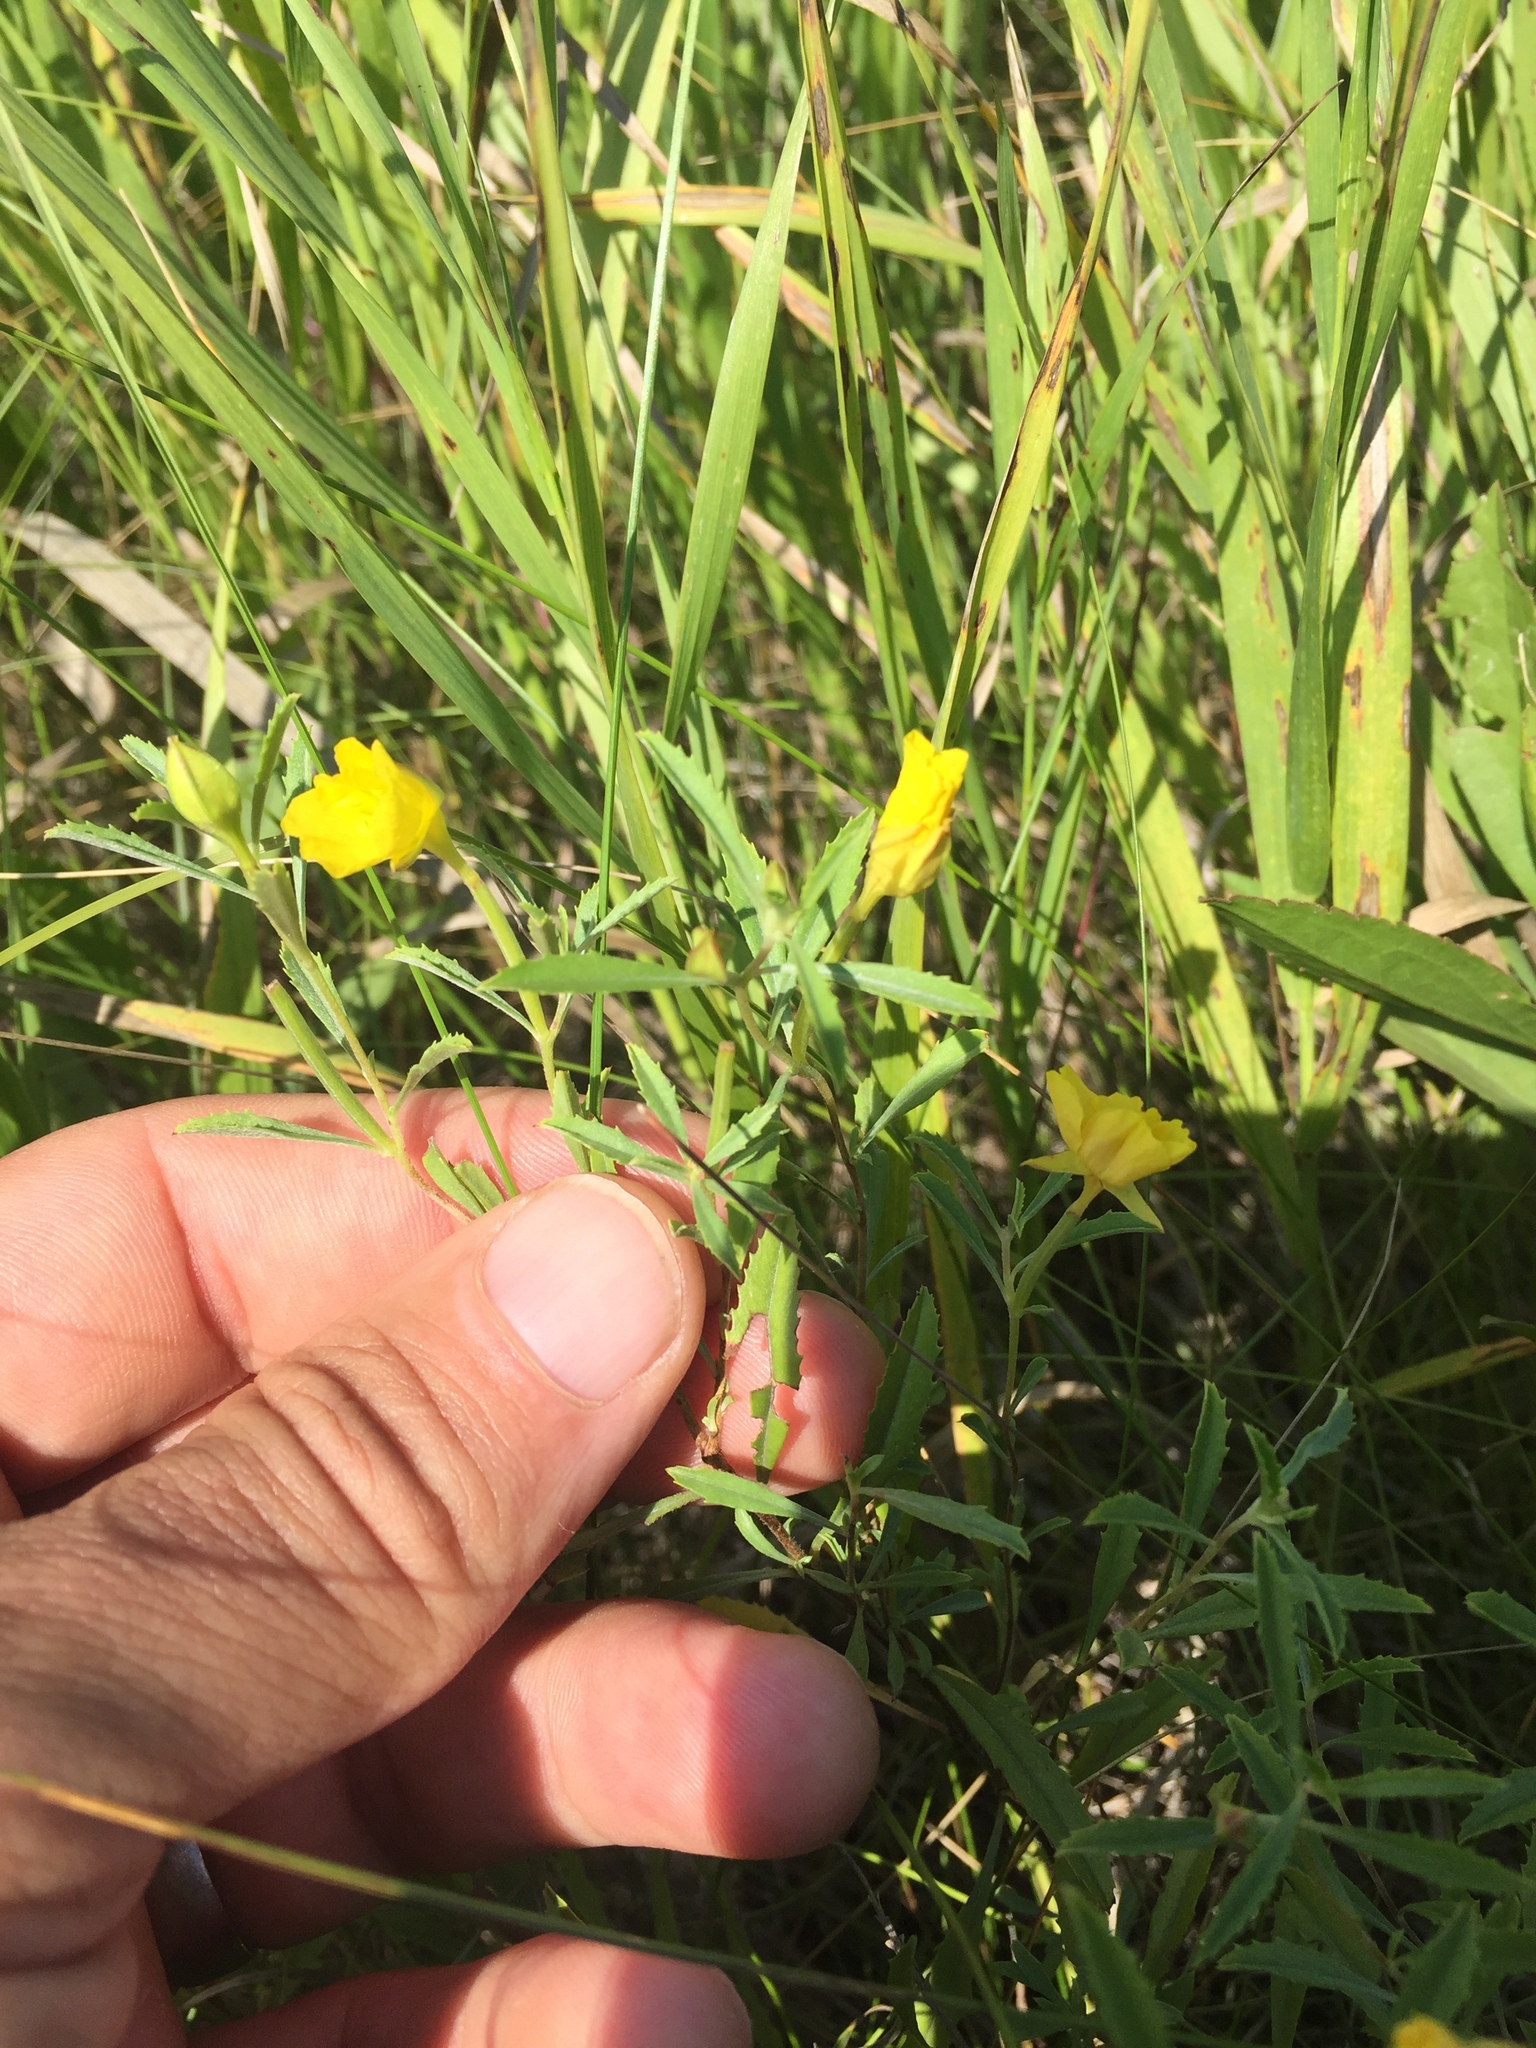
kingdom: Plantae
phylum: Tracheophyta
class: Magnoliopsida
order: Myrtales
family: Onagraceae
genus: Oenothera
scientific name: Oenothera serrulata
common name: Half-shrub calylophus
